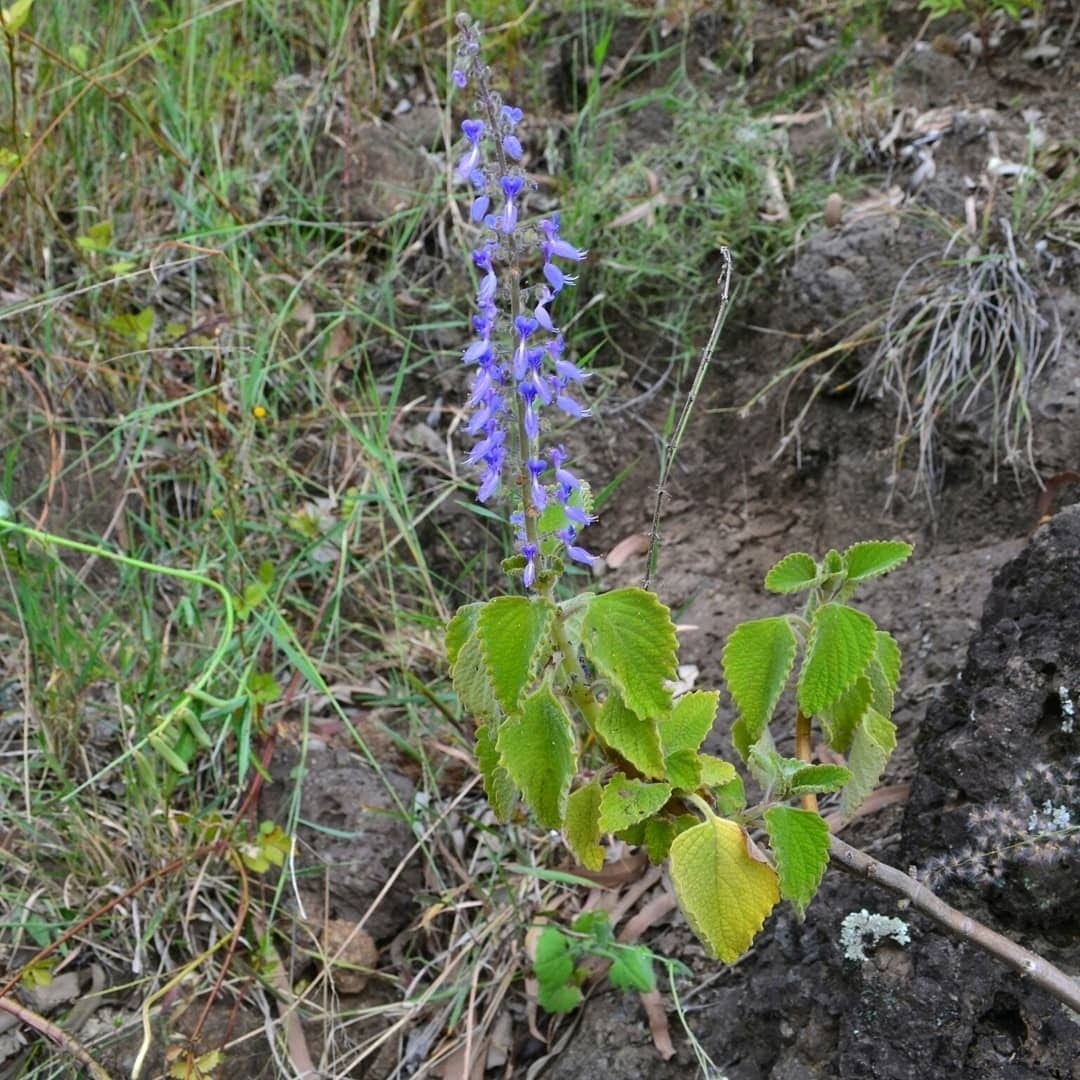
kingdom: Plantae
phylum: Tracheophyta
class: Magnoliopsida
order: Lamiales
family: Lamiaceae
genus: Coleus
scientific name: Coleus graveolens
